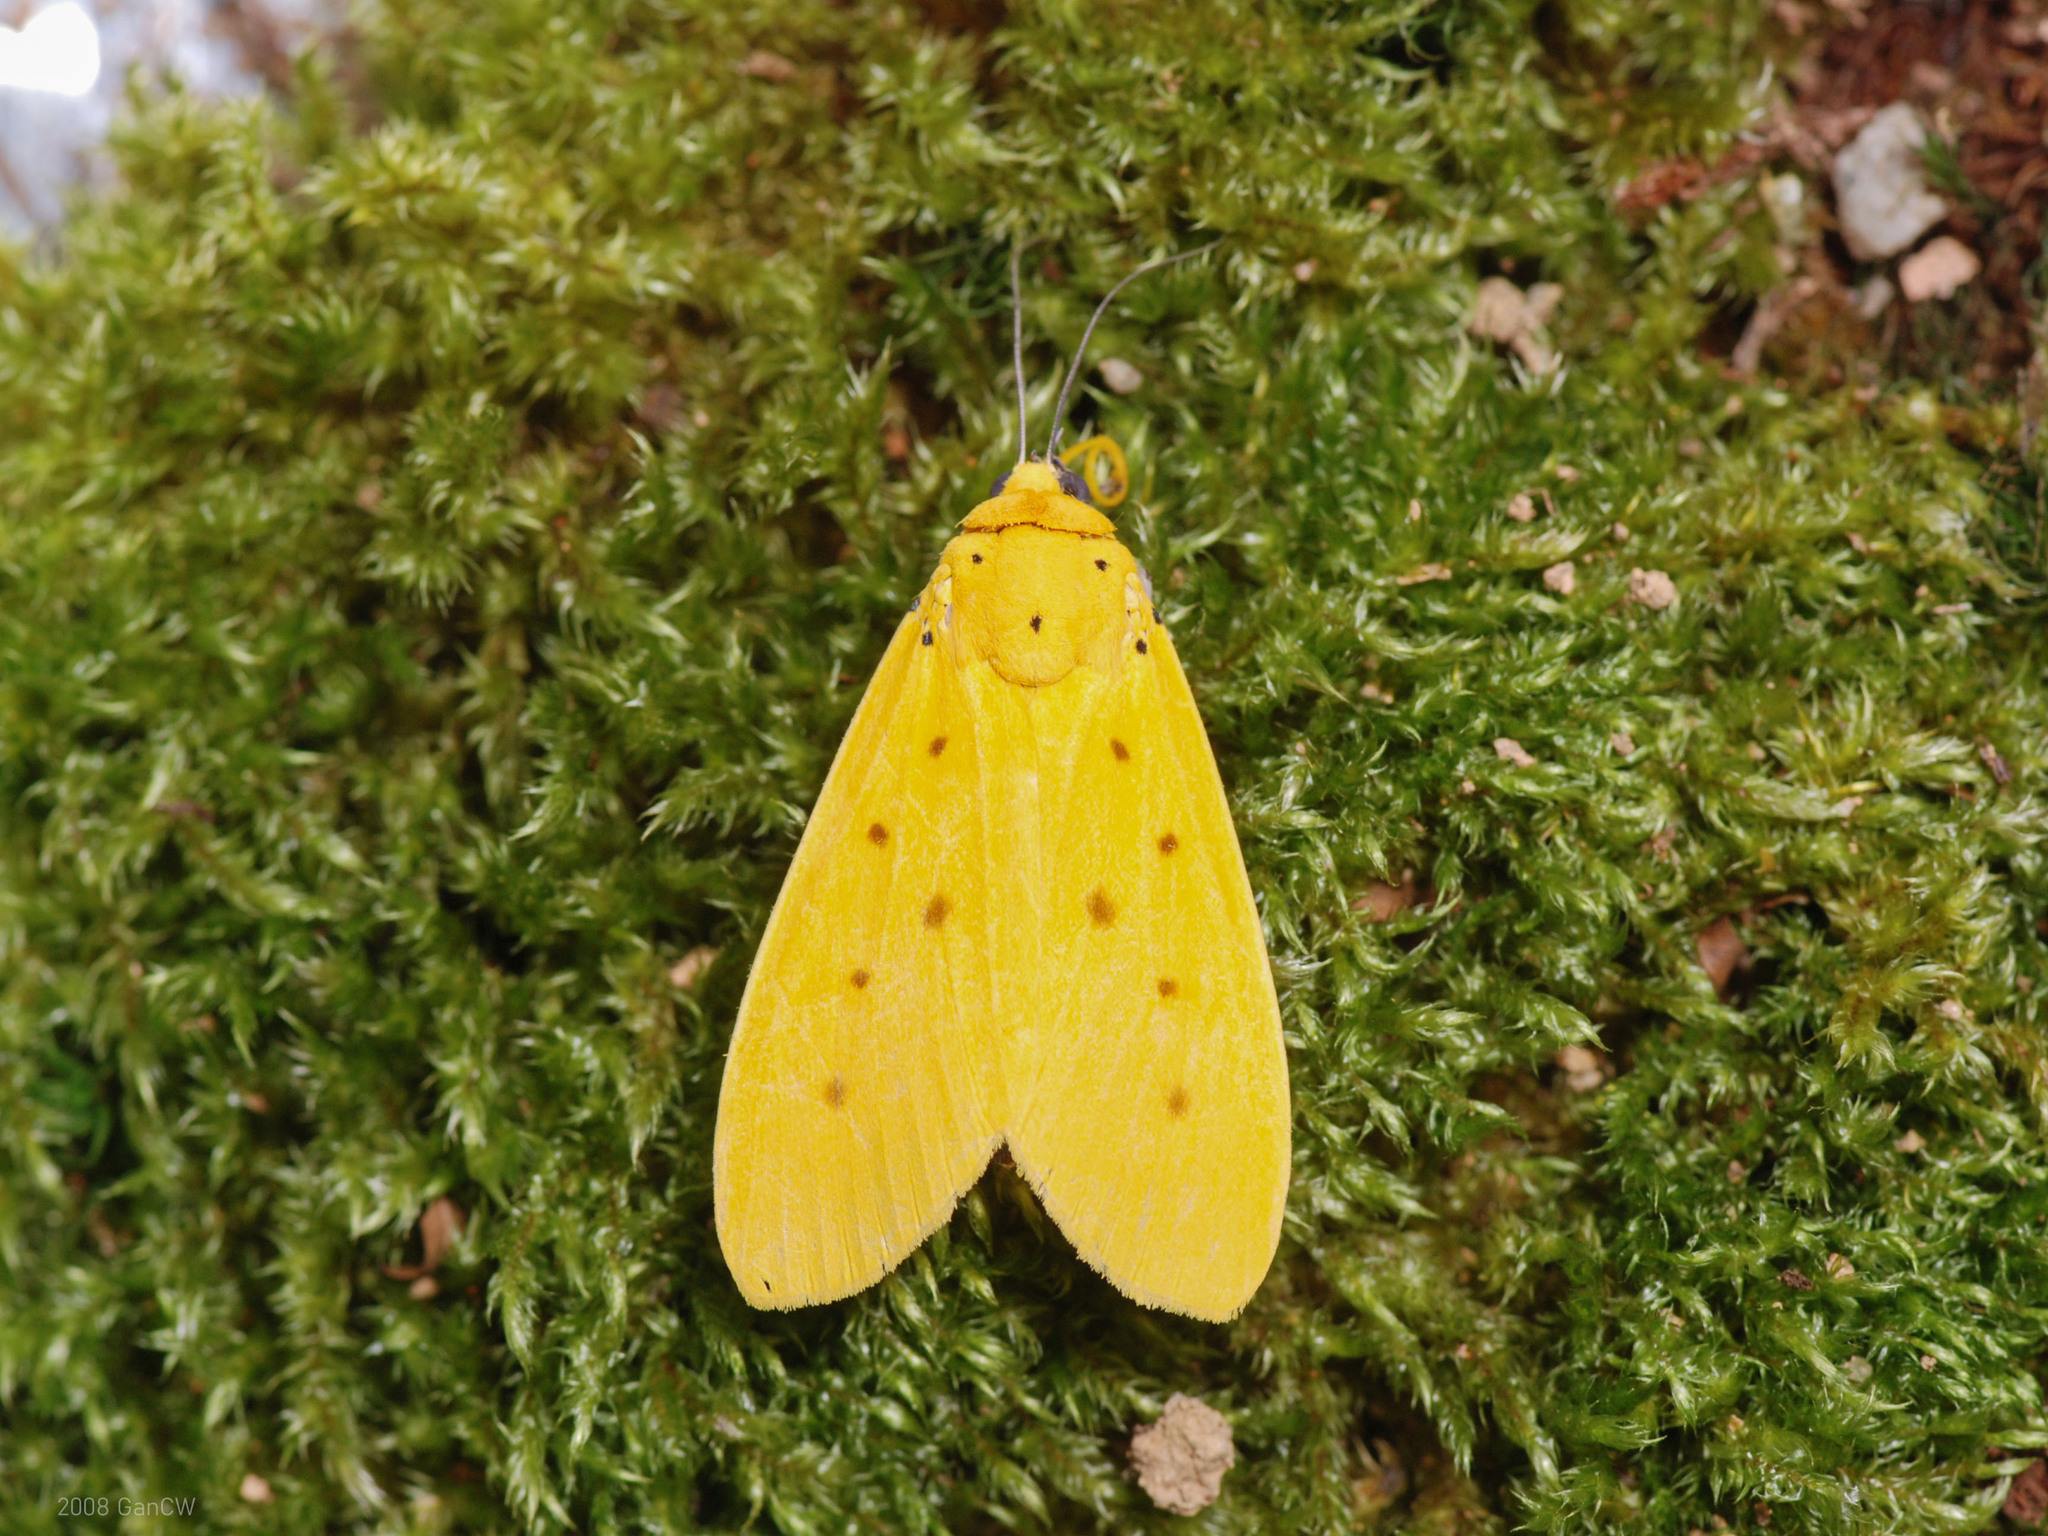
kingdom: Animalia
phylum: Arthropoda
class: Insecta
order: Lepidoptera
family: Noctuidae
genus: Agape
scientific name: Agape chloropyga
